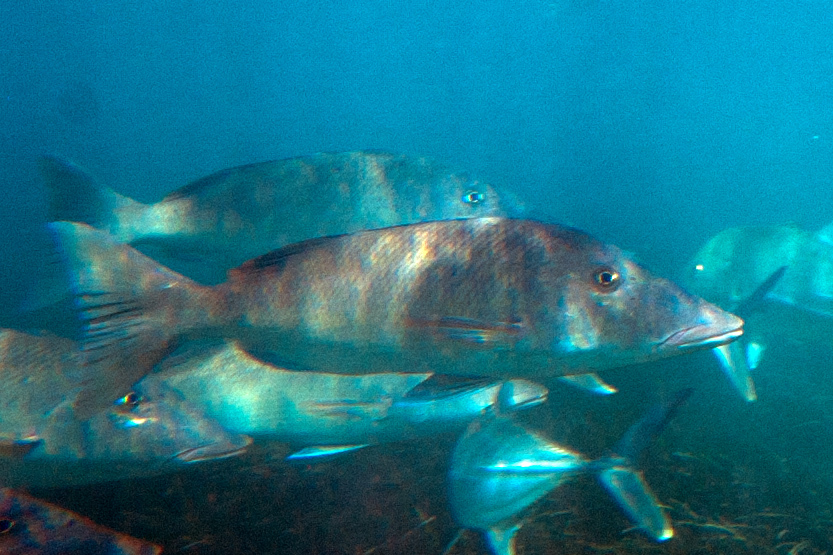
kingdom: Animalia
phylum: Chordata
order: Perciformes
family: Lethrinidae
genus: Lethrinus
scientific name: Lethrinus olivaceus
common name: Longnose emperor
